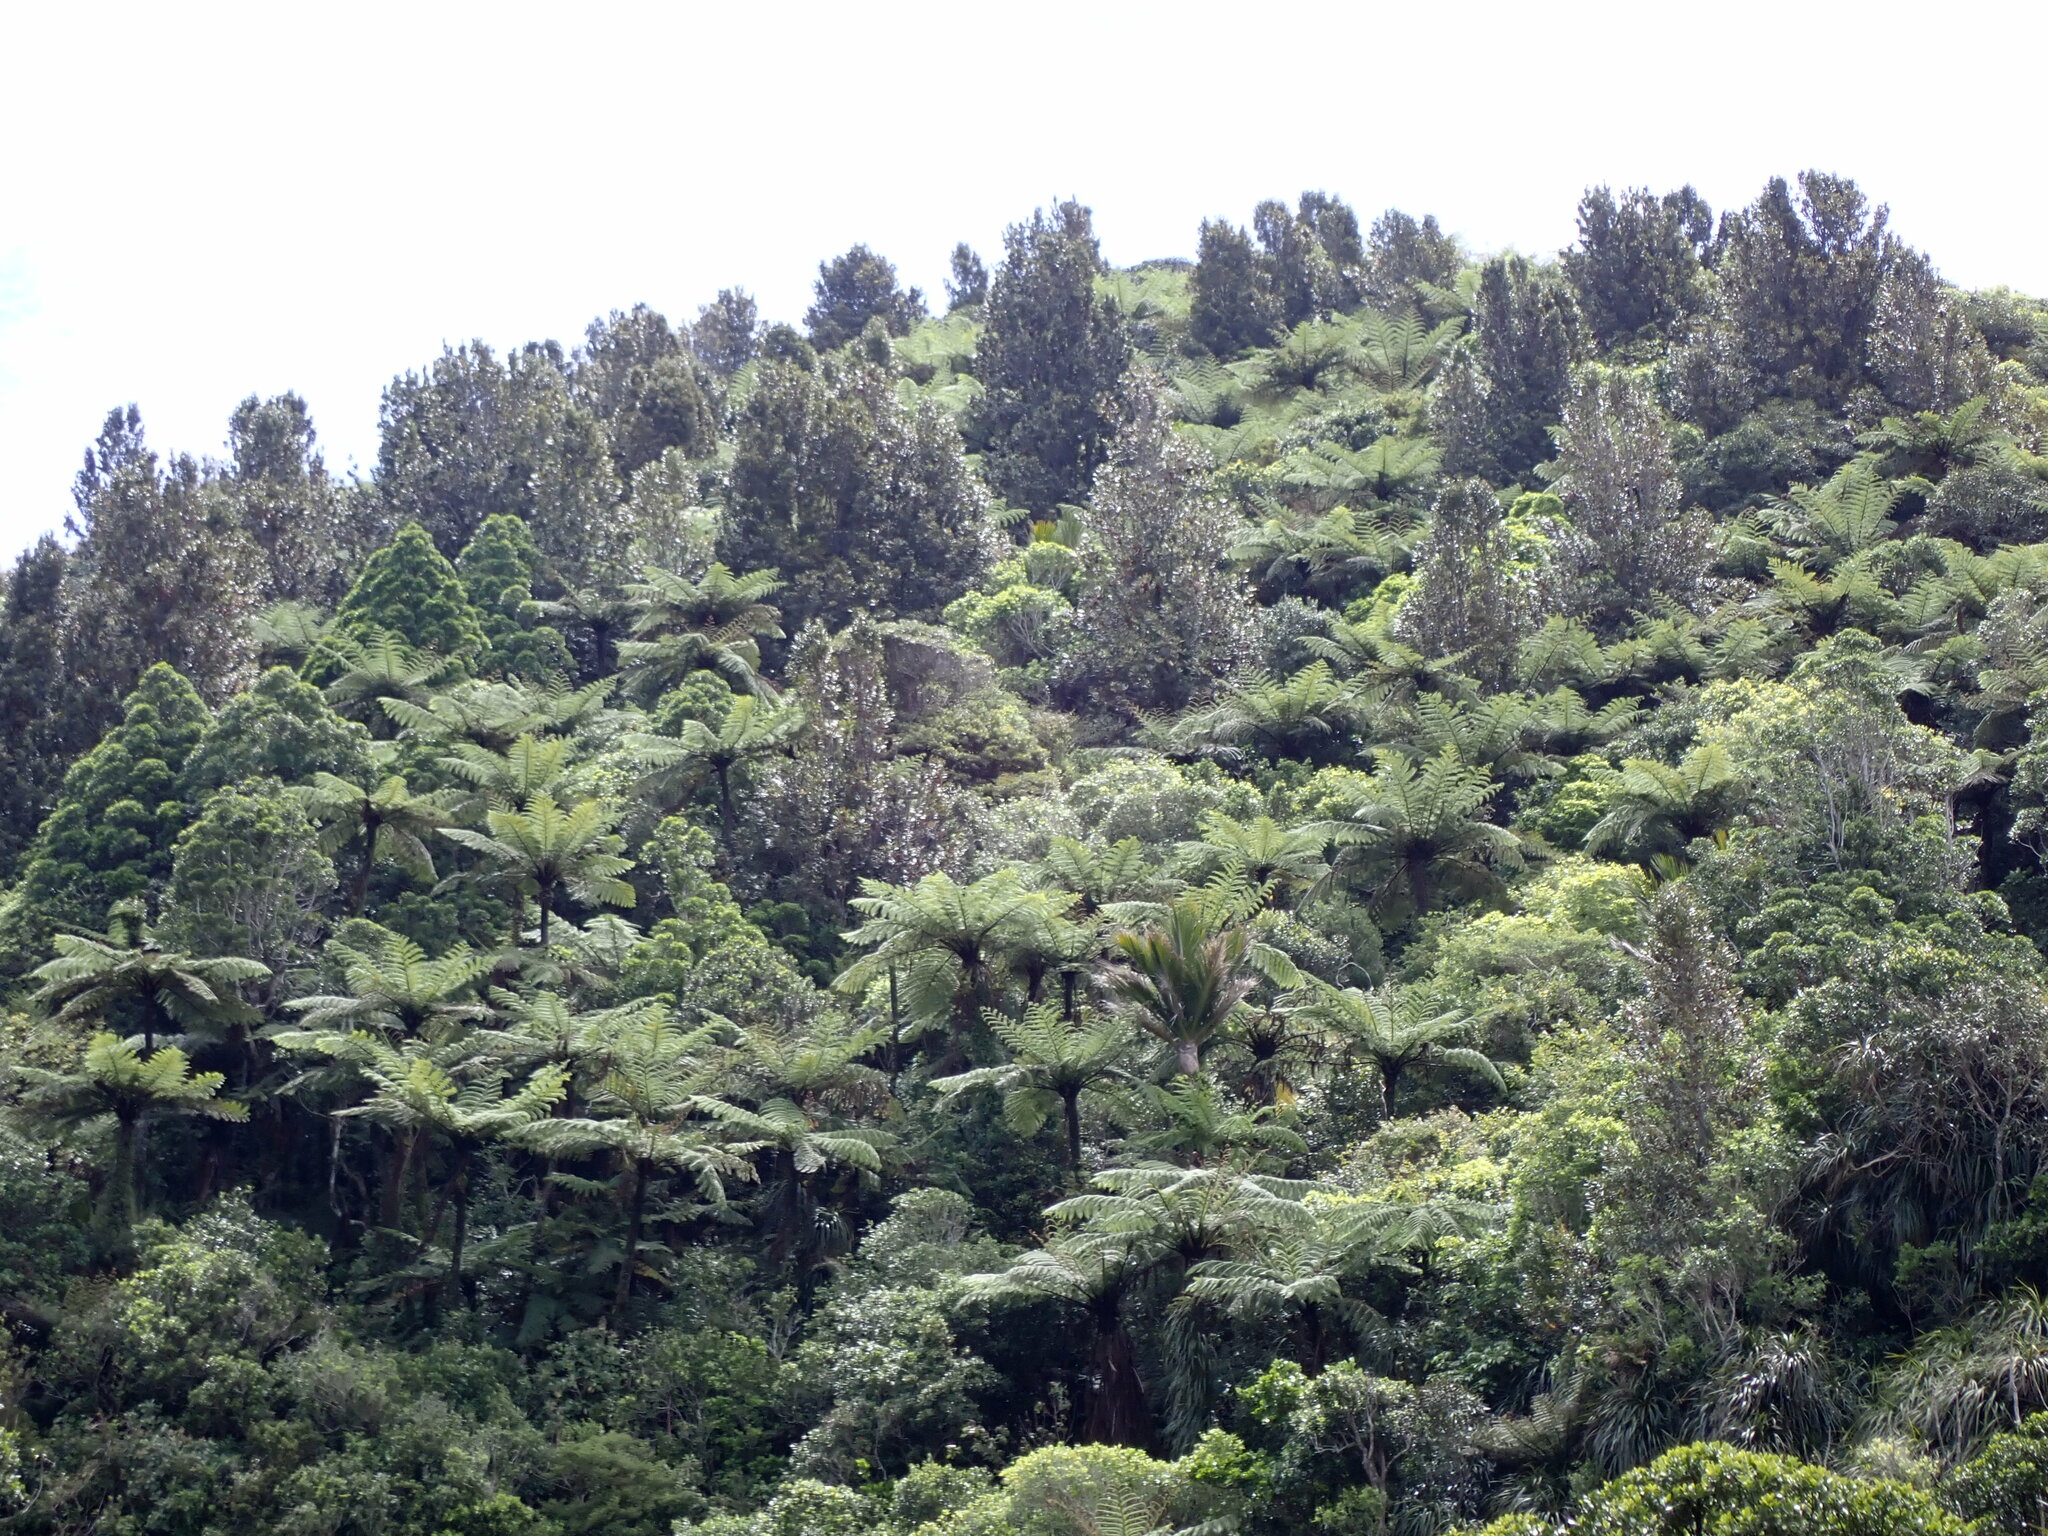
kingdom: Plantae
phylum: Tracheophyta
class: Polypodiopsida
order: Cyatheales
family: Cyatheaceae
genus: Sphaeropteris
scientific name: Sphaeropteris medullaris
